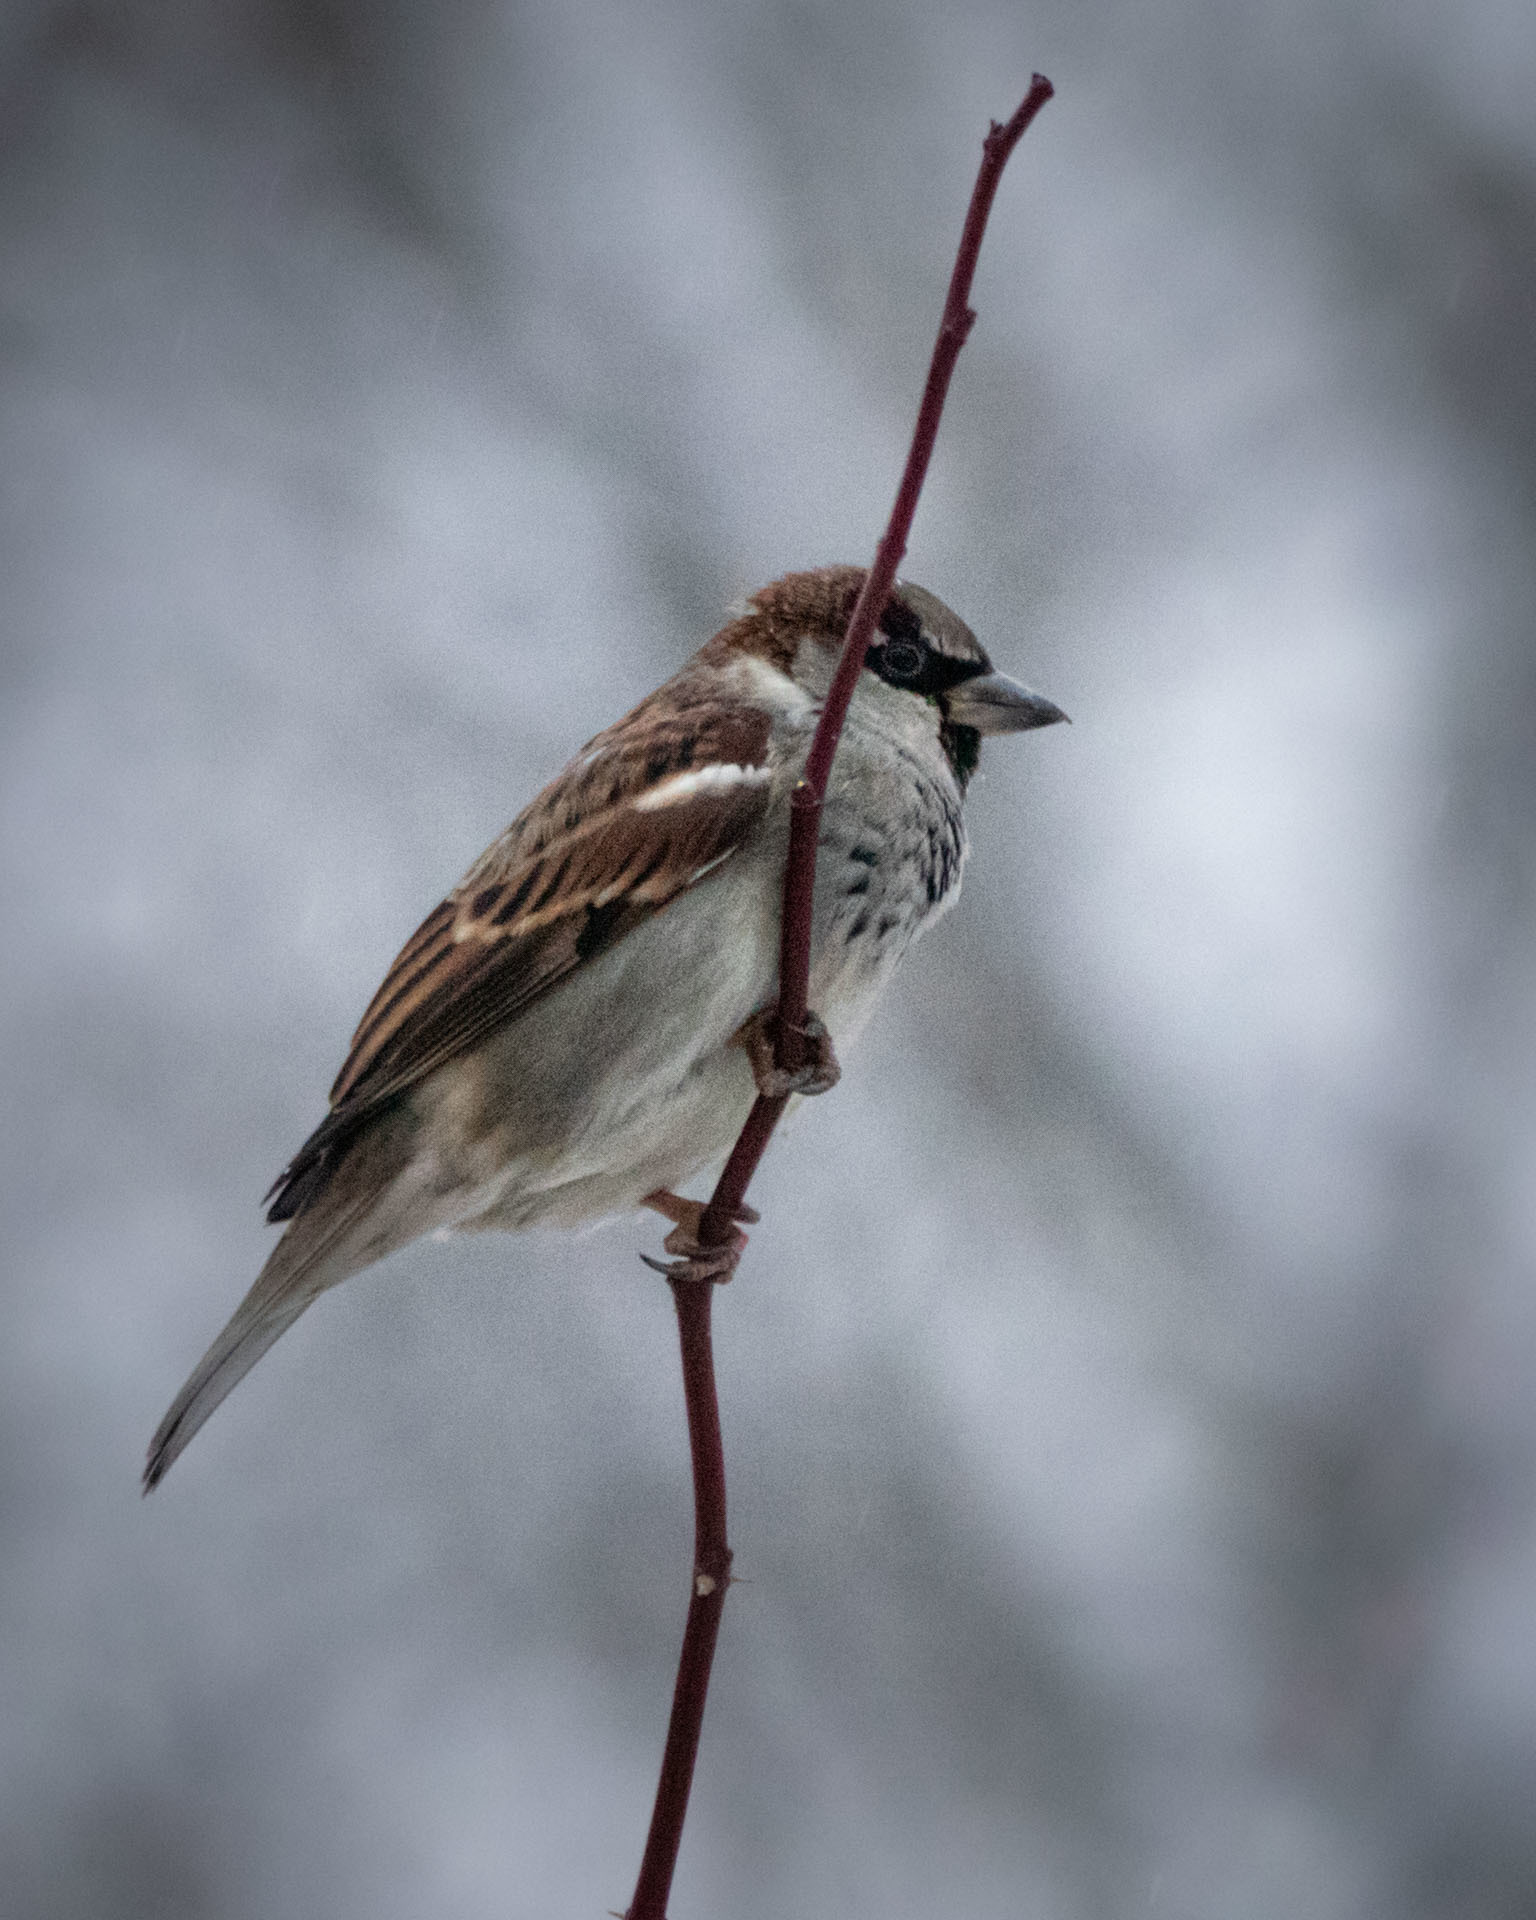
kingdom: Animalia
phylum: Chordata
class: Aves
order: Passeriformes
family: Passeridae
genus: Passer
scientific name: Passer domesticus
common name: House sparrow
